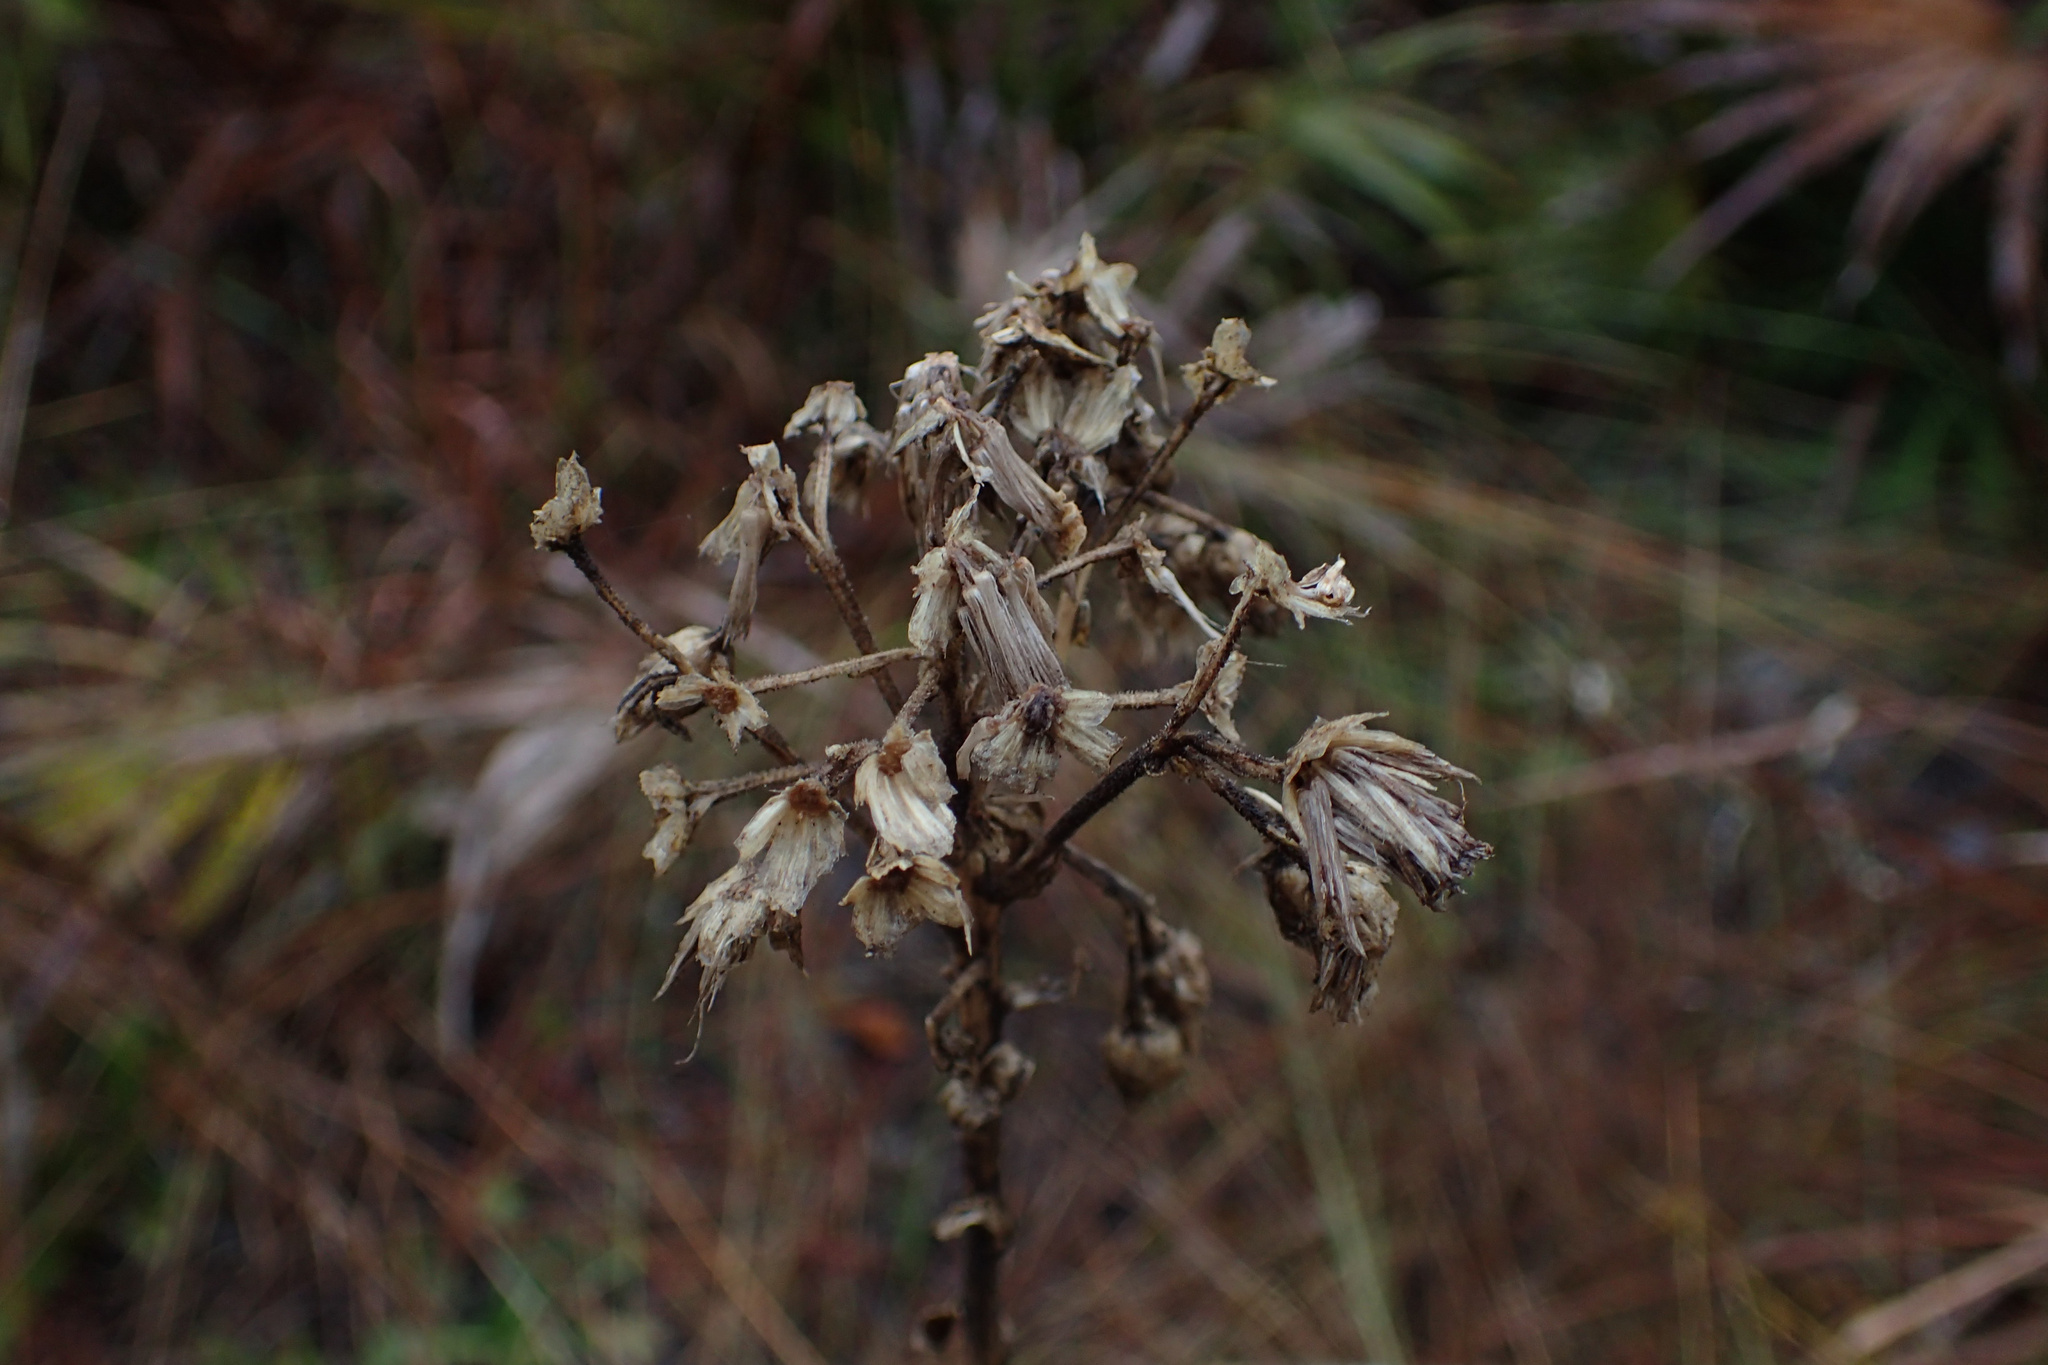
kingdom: Plantae
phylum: Tracheophyta
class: Magnoliopsida
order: Asterales
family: Asteraceae
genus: Carphephorus
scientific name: Carphephorus corymbosus
